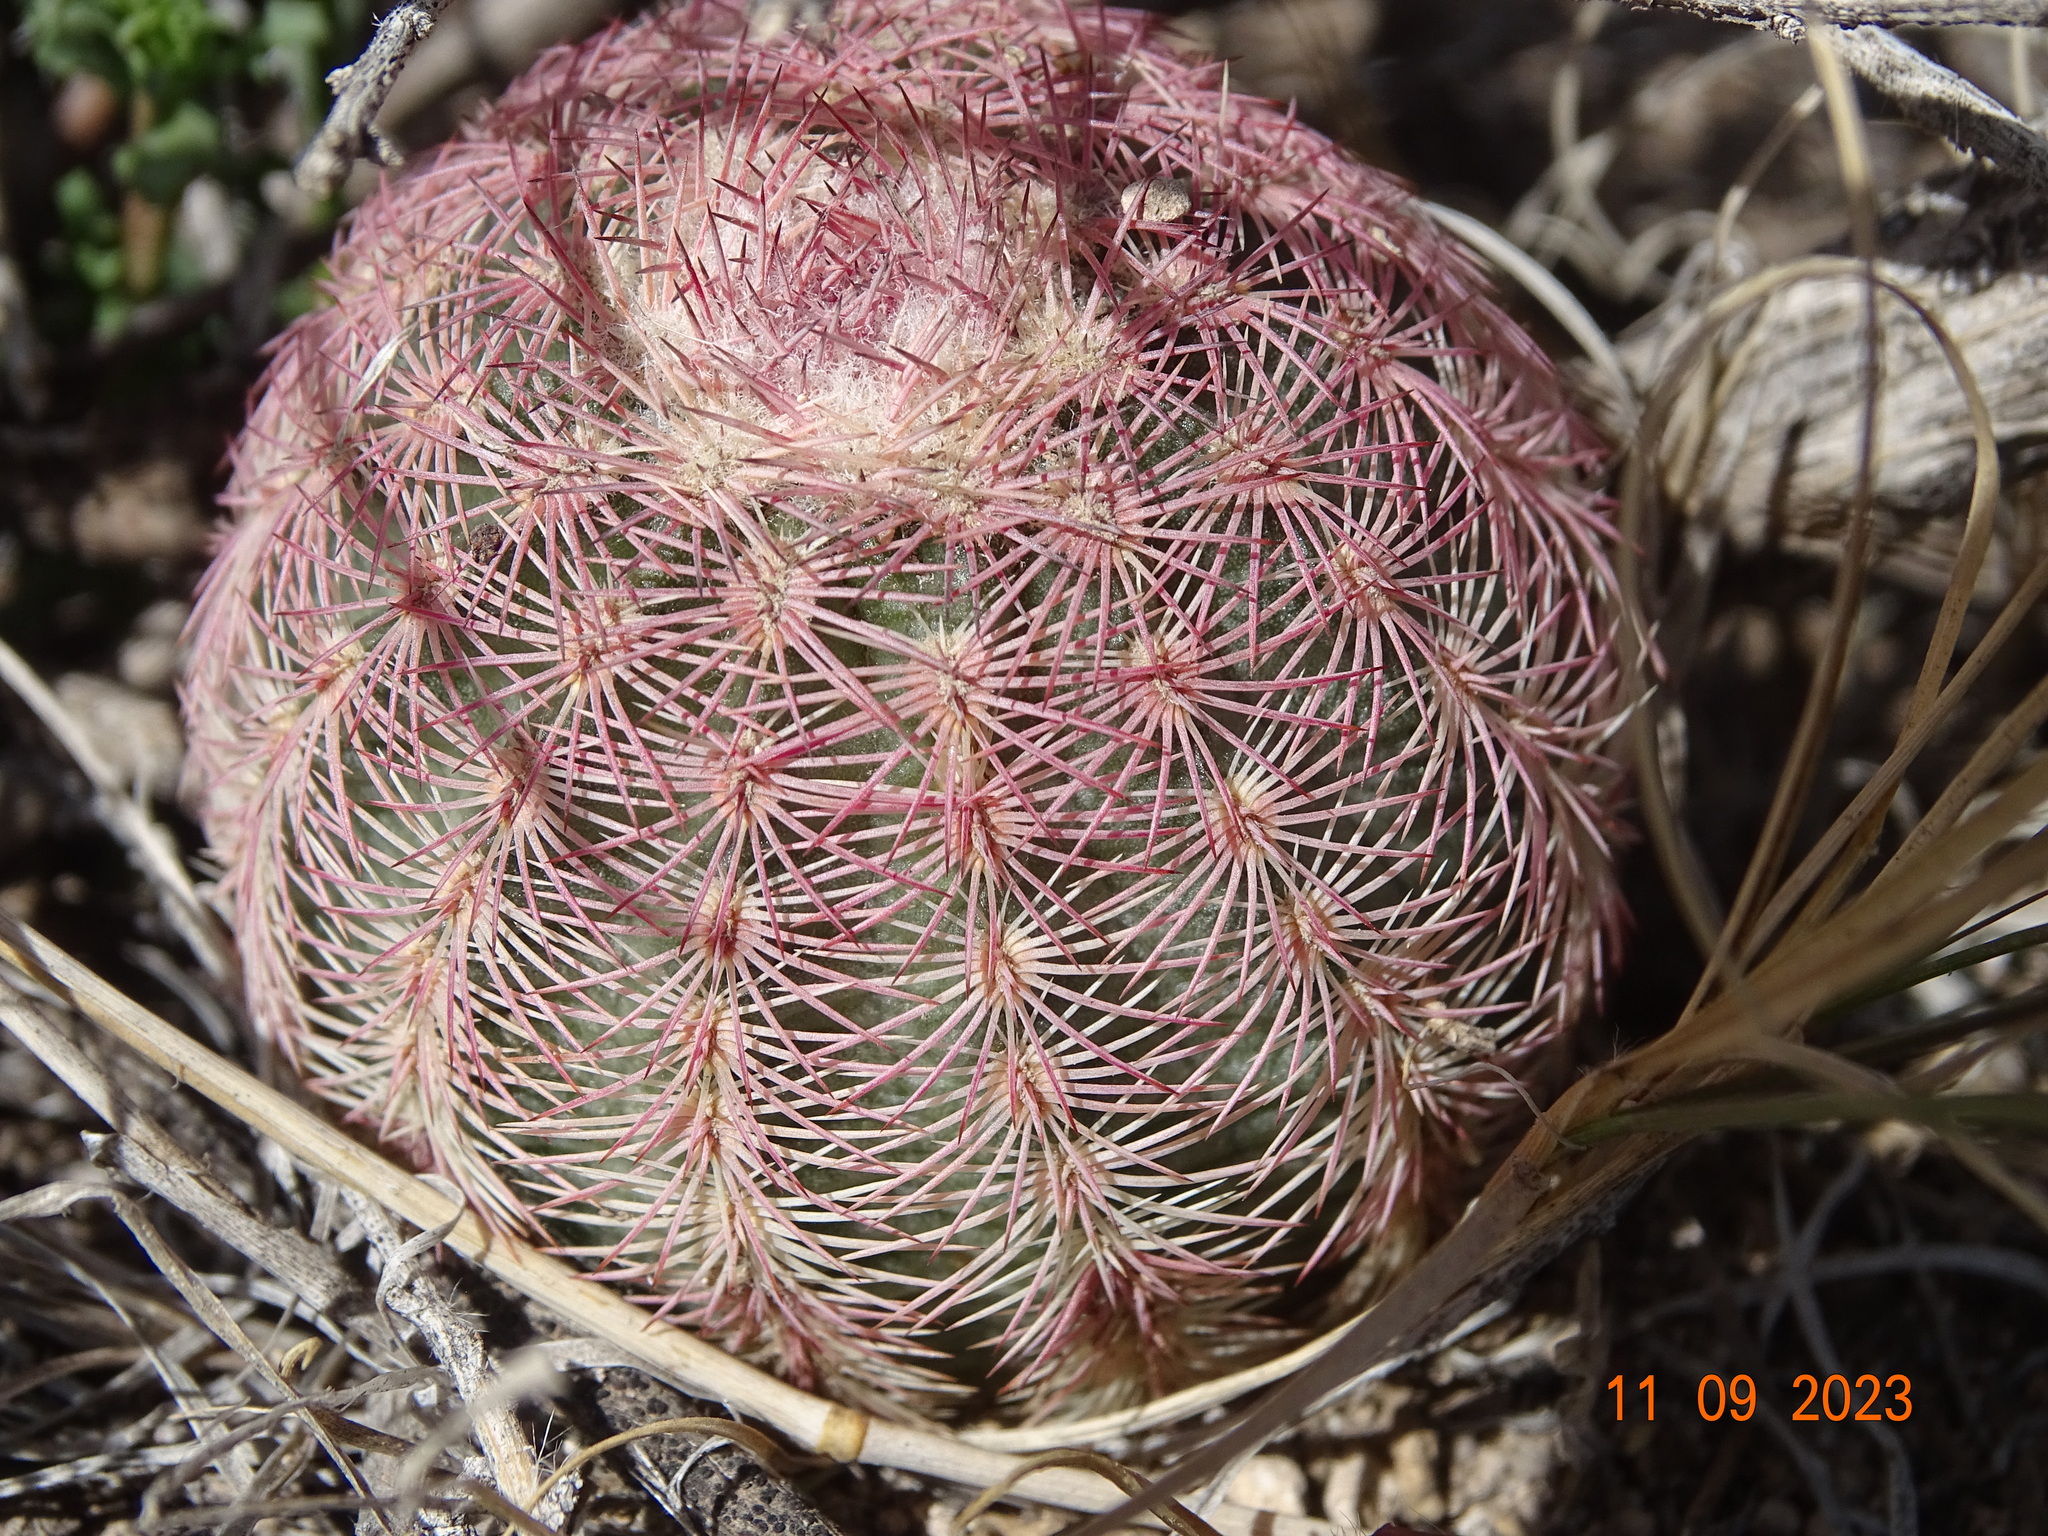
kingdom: Plantae
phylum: Tracheophyta
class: Magnoliopsida
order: Caryophyllales
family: Cactaceae
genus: Echinocereus
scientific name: Echinocereus pectinatus
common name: Rainbow cactus
